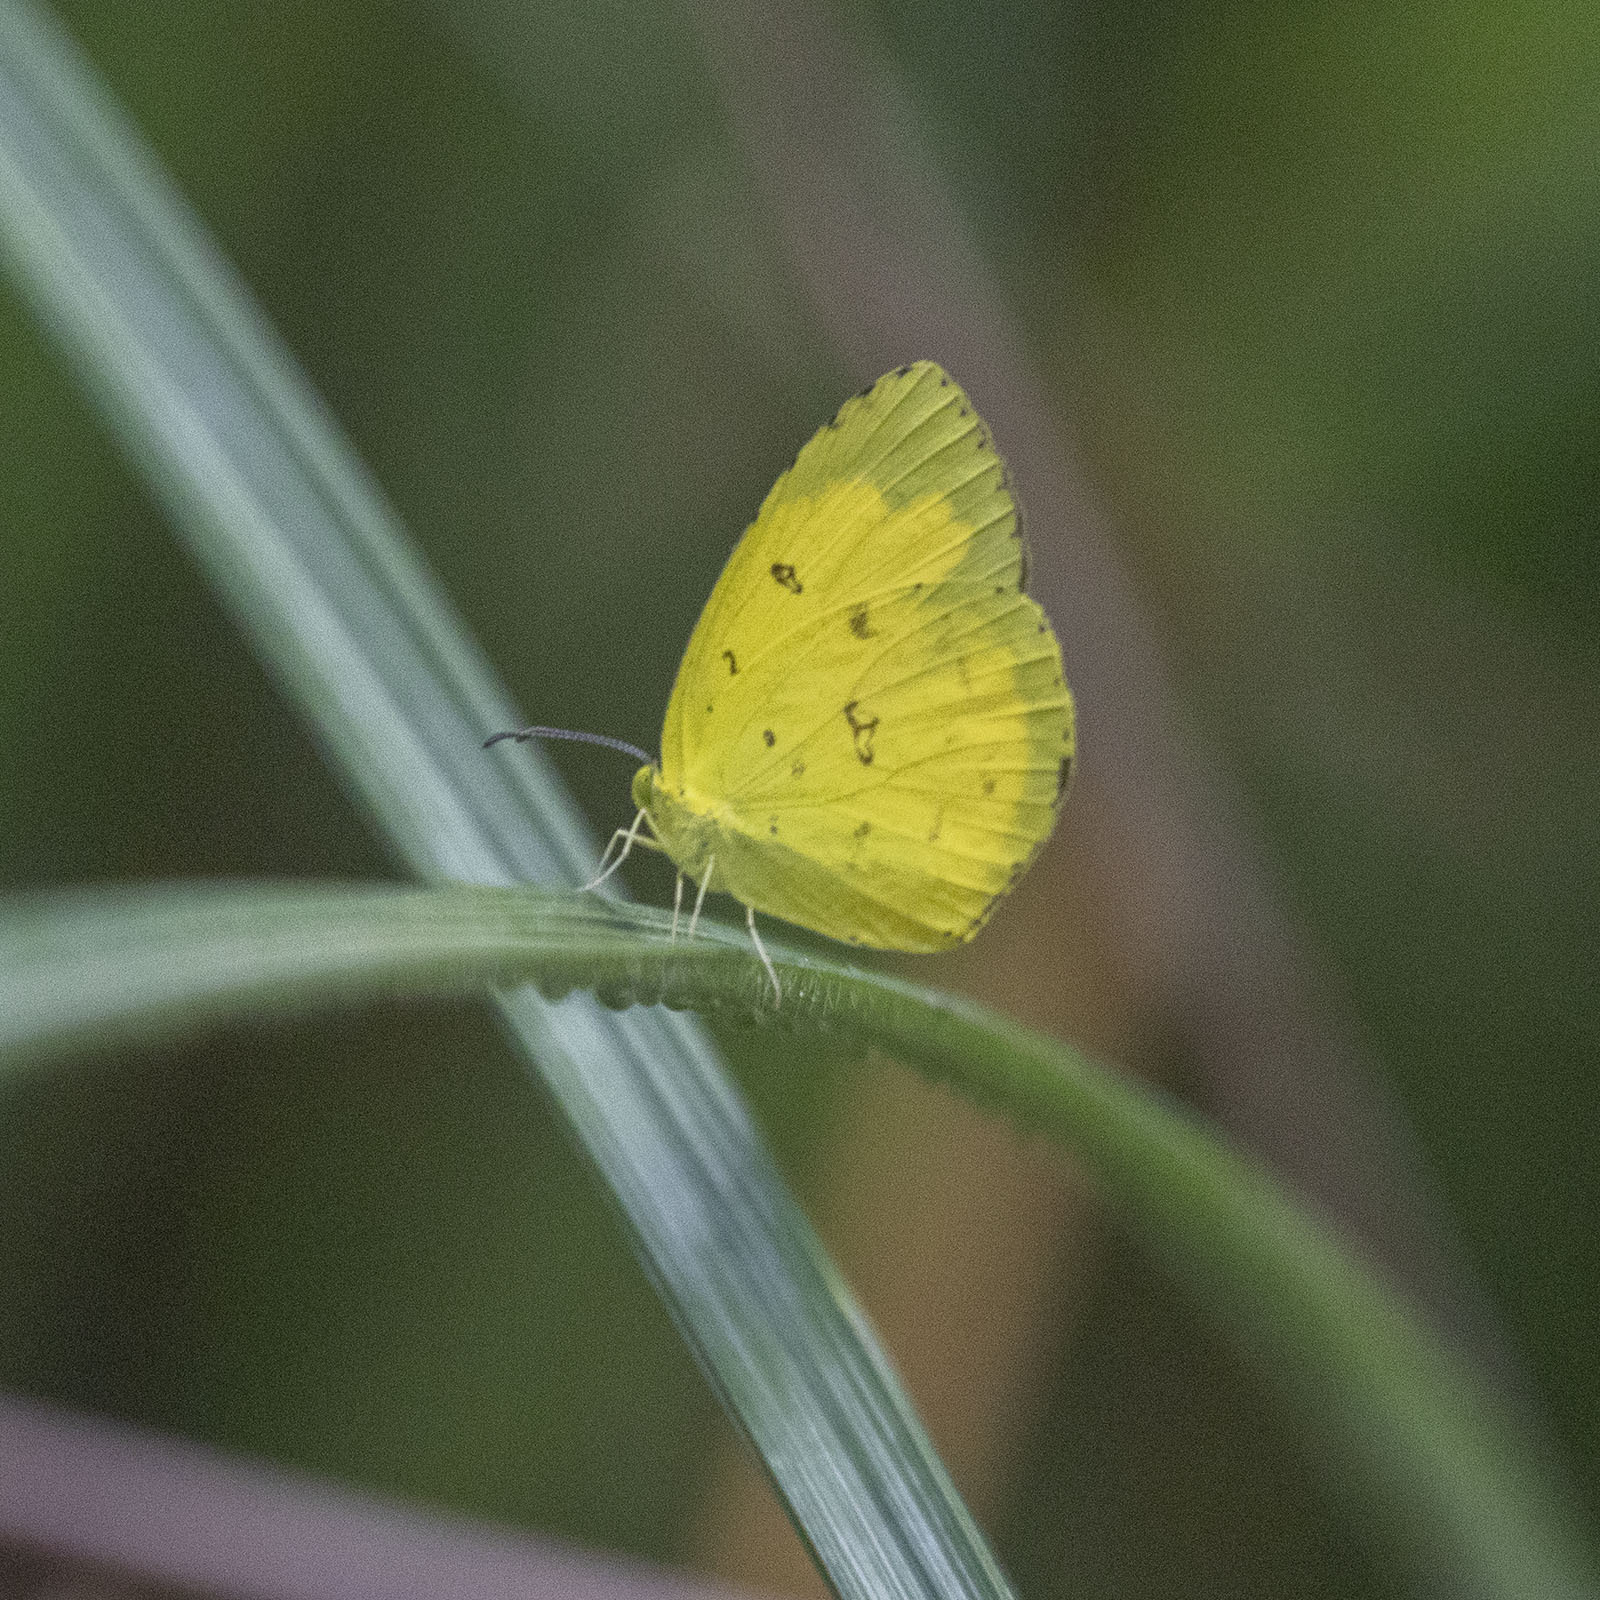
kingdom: Animalia
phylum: Arthropoda
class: Insecta
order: Lepidoptera
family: Pieridae
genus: Eurema
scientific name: Eurema hecabe
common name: Pale grass yellow
